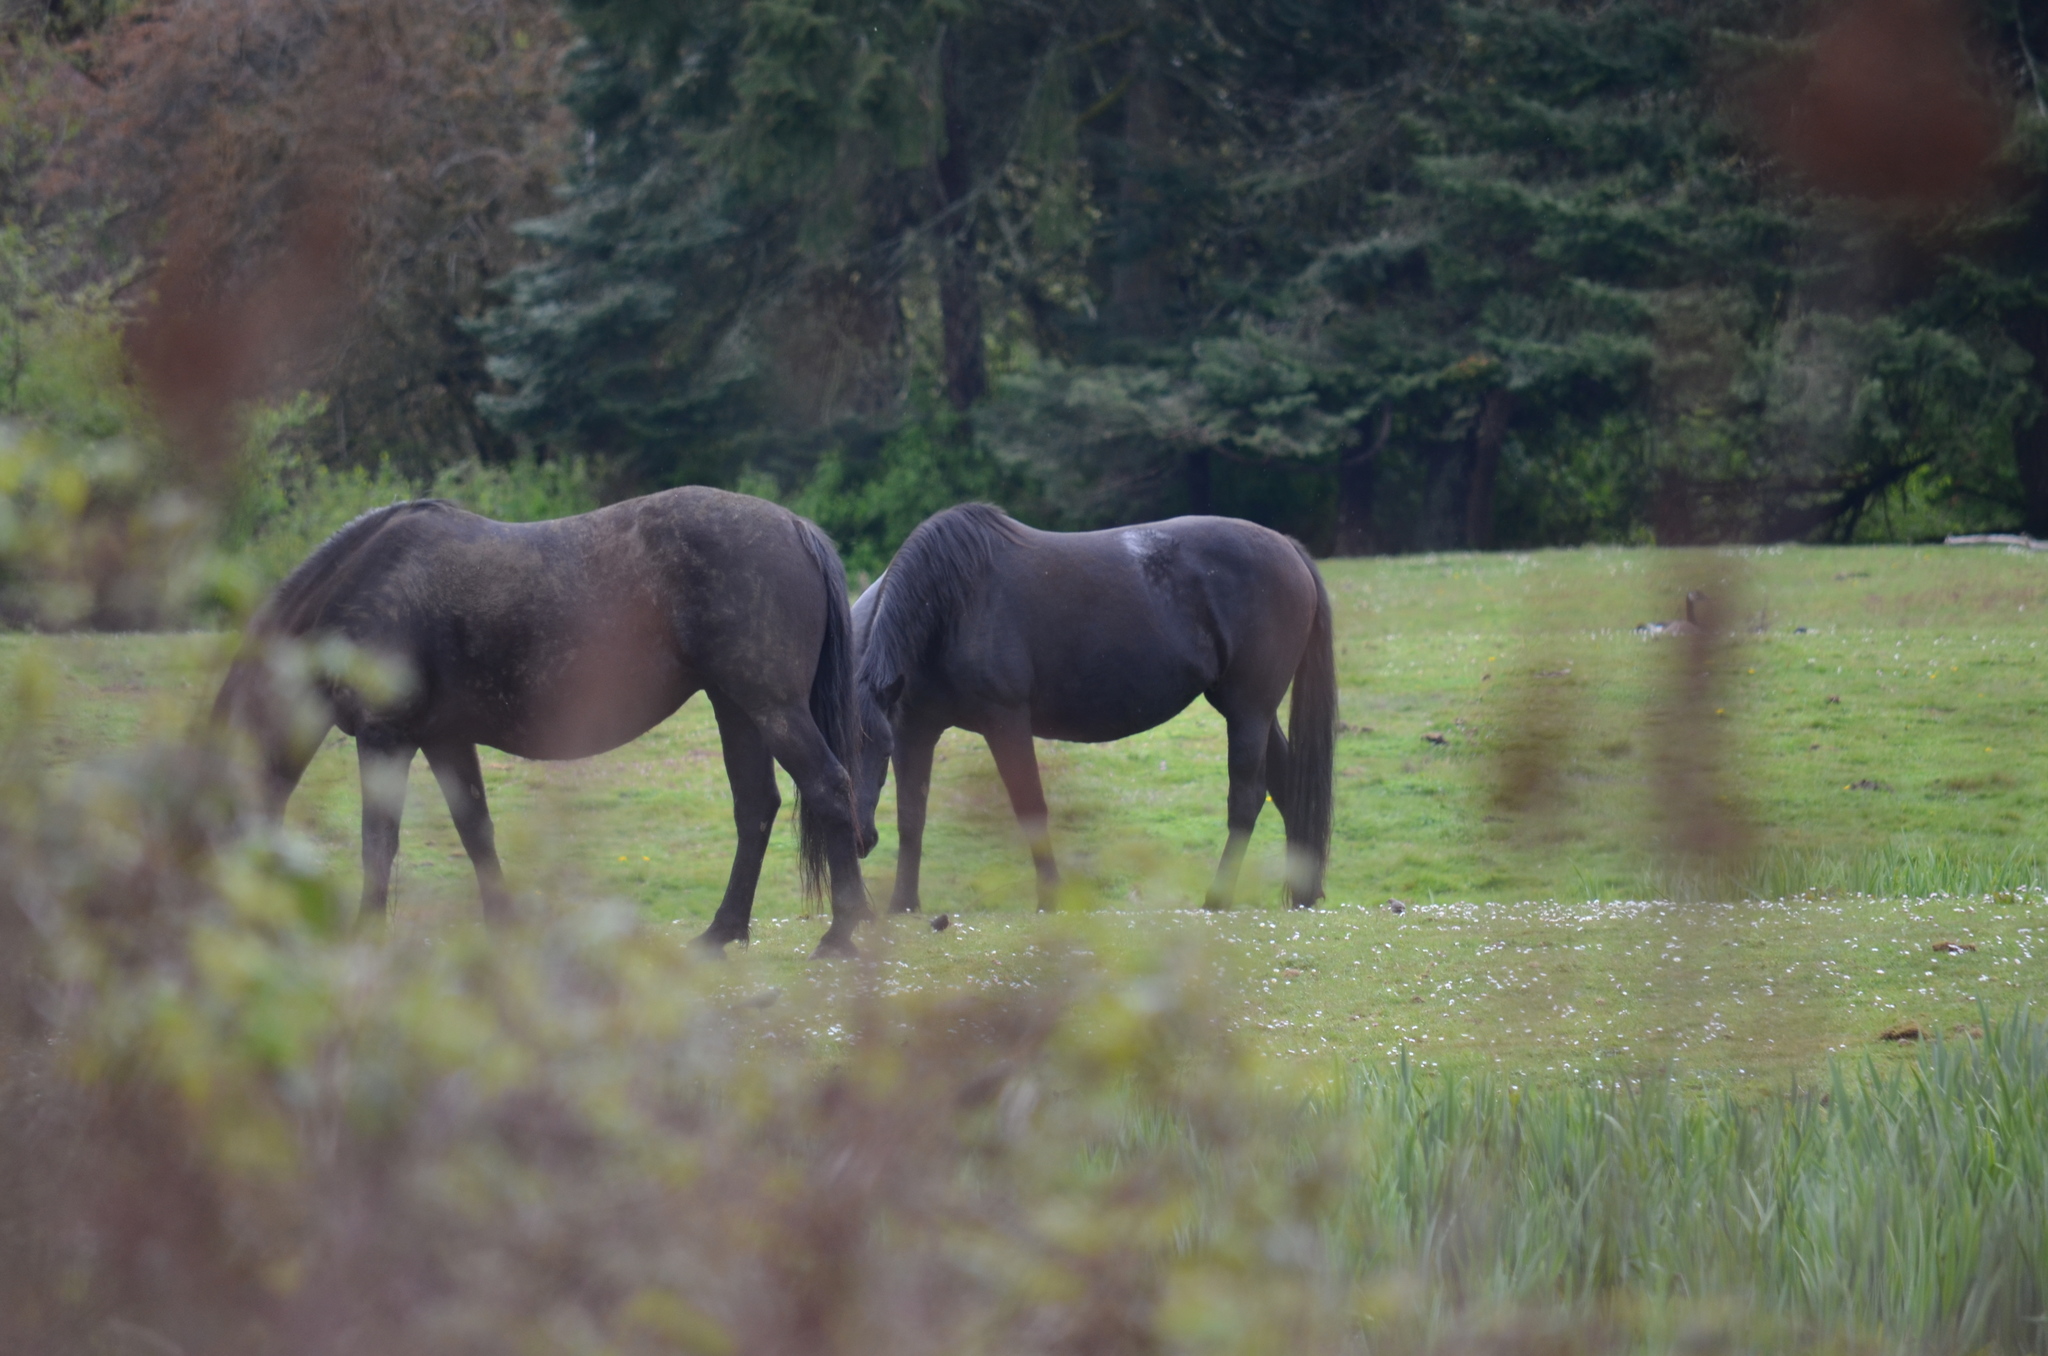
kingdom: Animalia
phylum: Chordata
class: Aves
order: Anseriformes
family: Anatidae
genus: Branta
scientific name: Branta canadensis
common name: Canada goose
